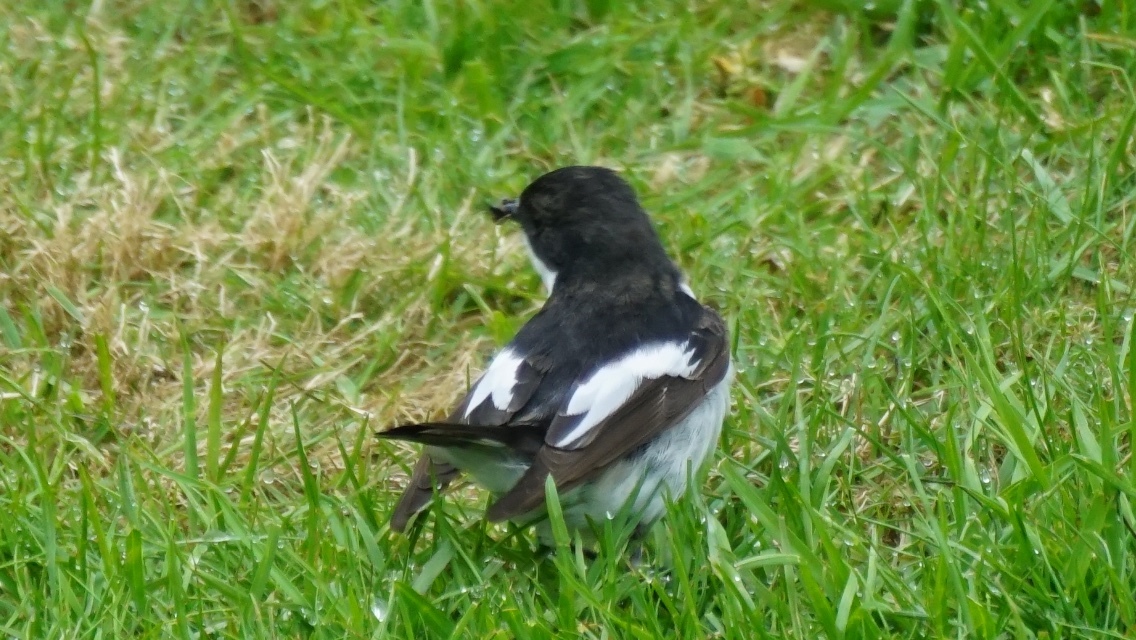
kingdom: Animalia
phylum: Chordata
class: Aves
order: Passeriformes
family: Muscicapidae
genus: Ficedula
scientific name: Ficedula hypoleuca
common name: European pied flycatcher
